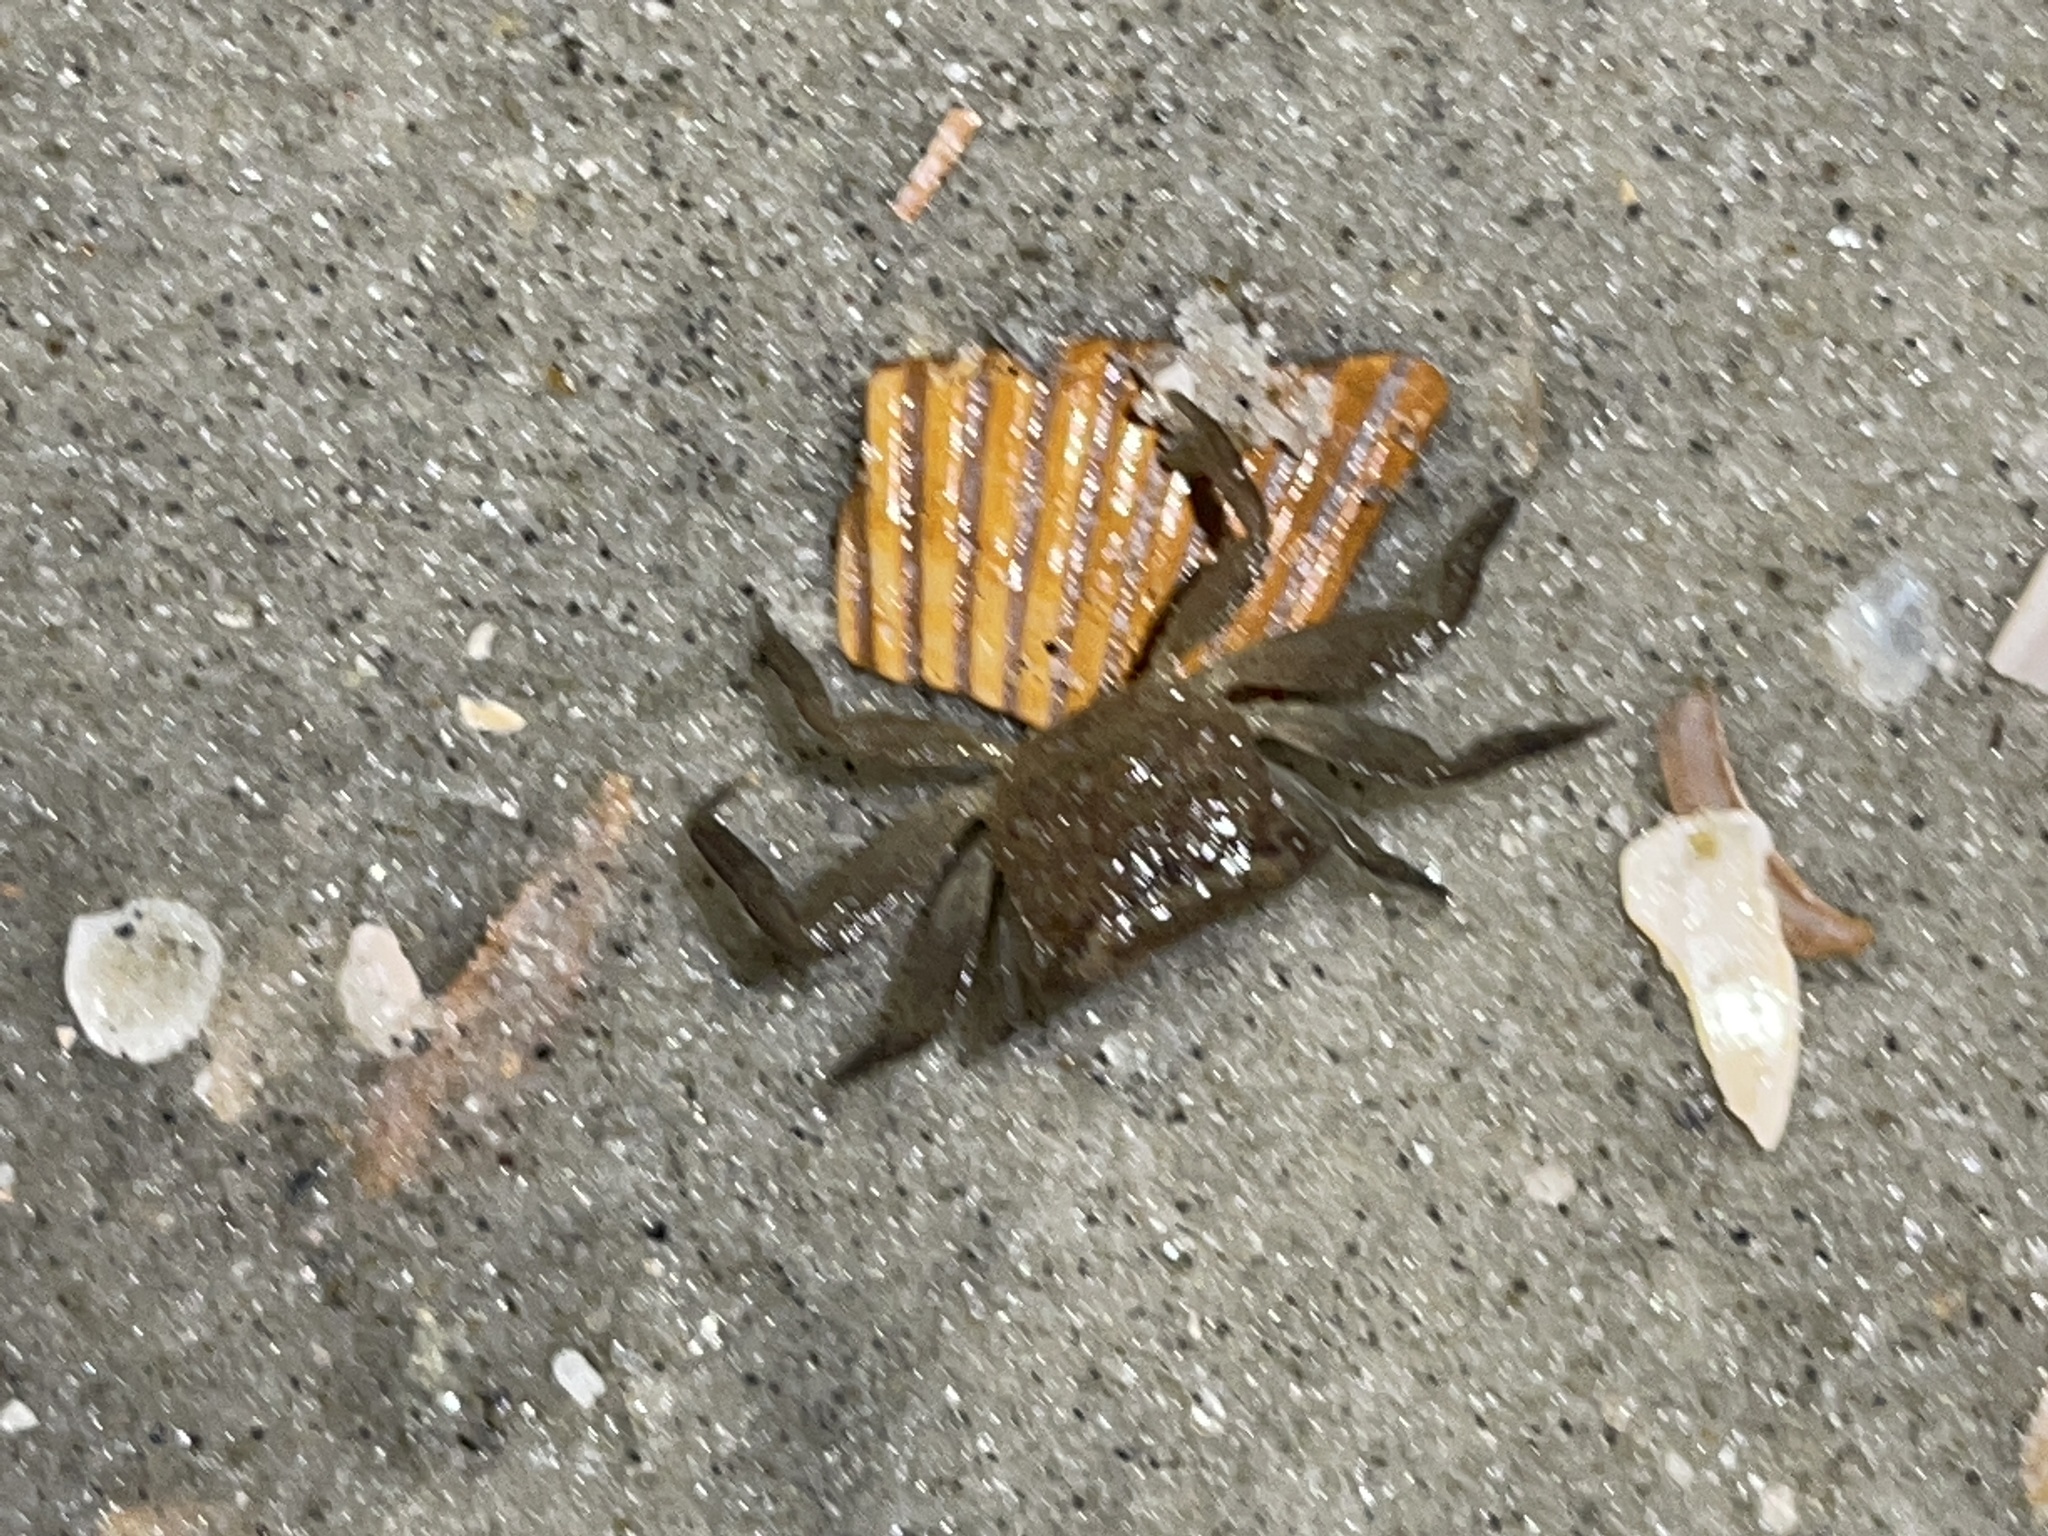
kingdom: Animalia
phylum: Arthropoda
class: Malacostraca
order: Decapoda
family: Sesarmidae
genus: Armases
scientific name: Armases cinereum
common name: Squareback marsh crab
